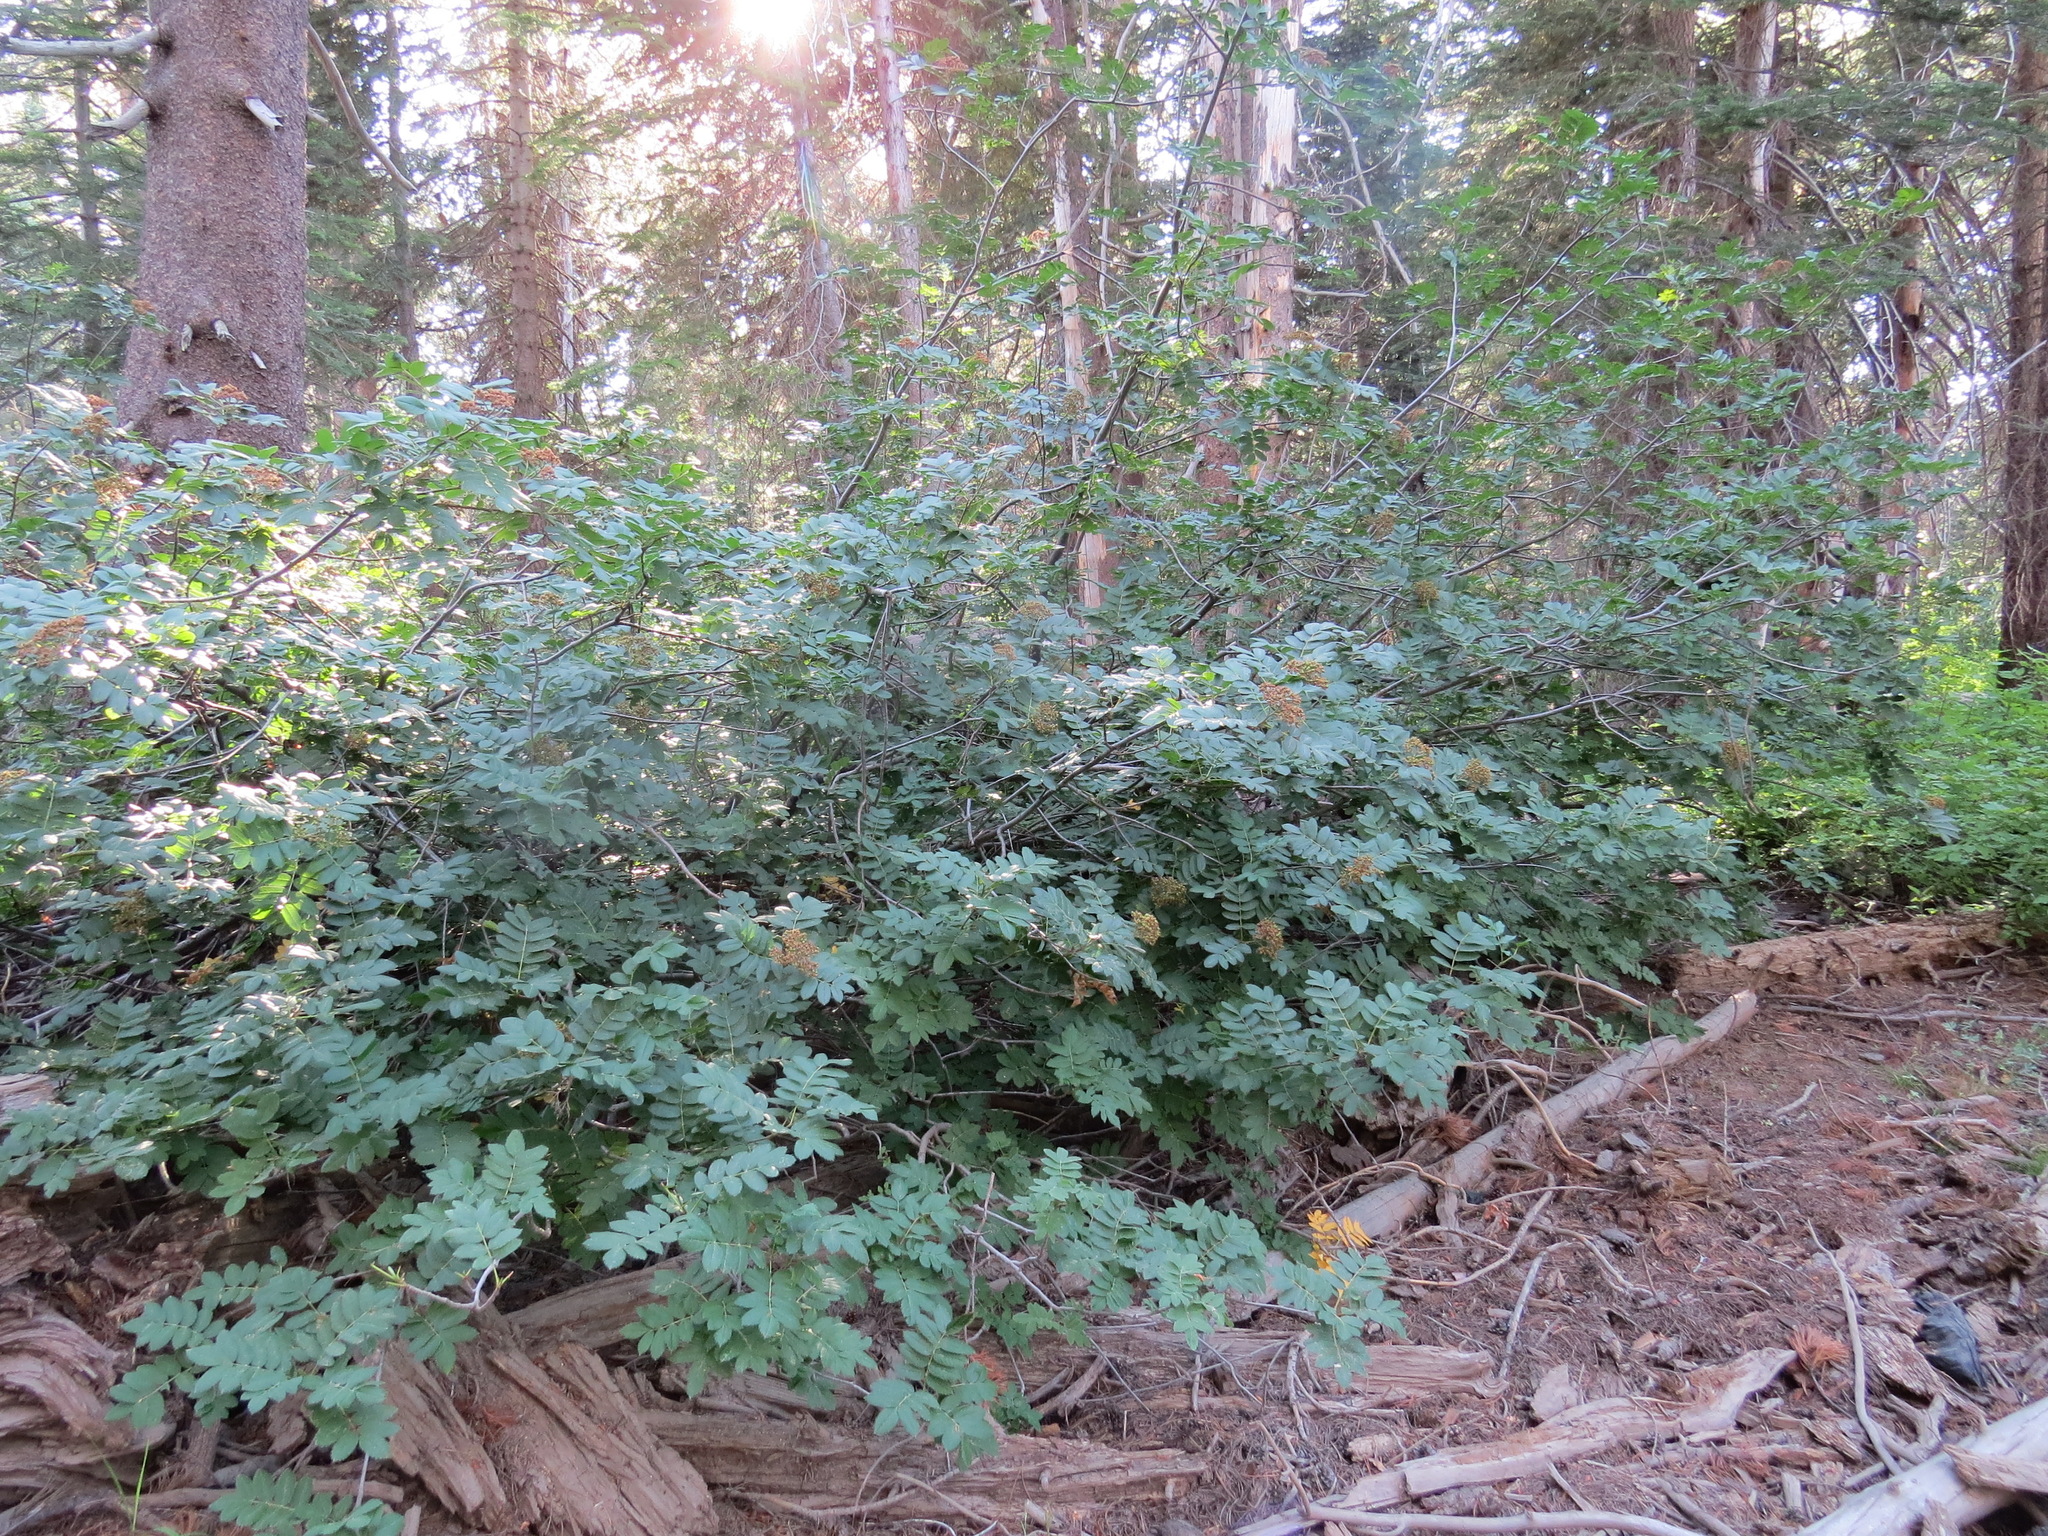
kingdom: Plantae
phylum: Tracheophyta
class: Magnoliopsida
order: Rosales
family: Rosaceae
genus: Sorbus
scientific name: Sorbus californica
